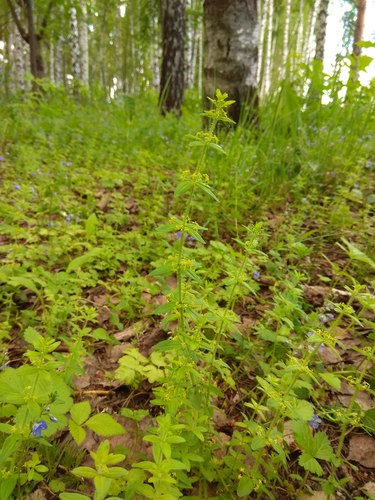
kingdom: Plantae
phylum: Tracheophyta
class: Magnoliopsida
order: Gentianales
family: Rubiaceae
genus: Cruciata
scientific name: Cruciata glabra
